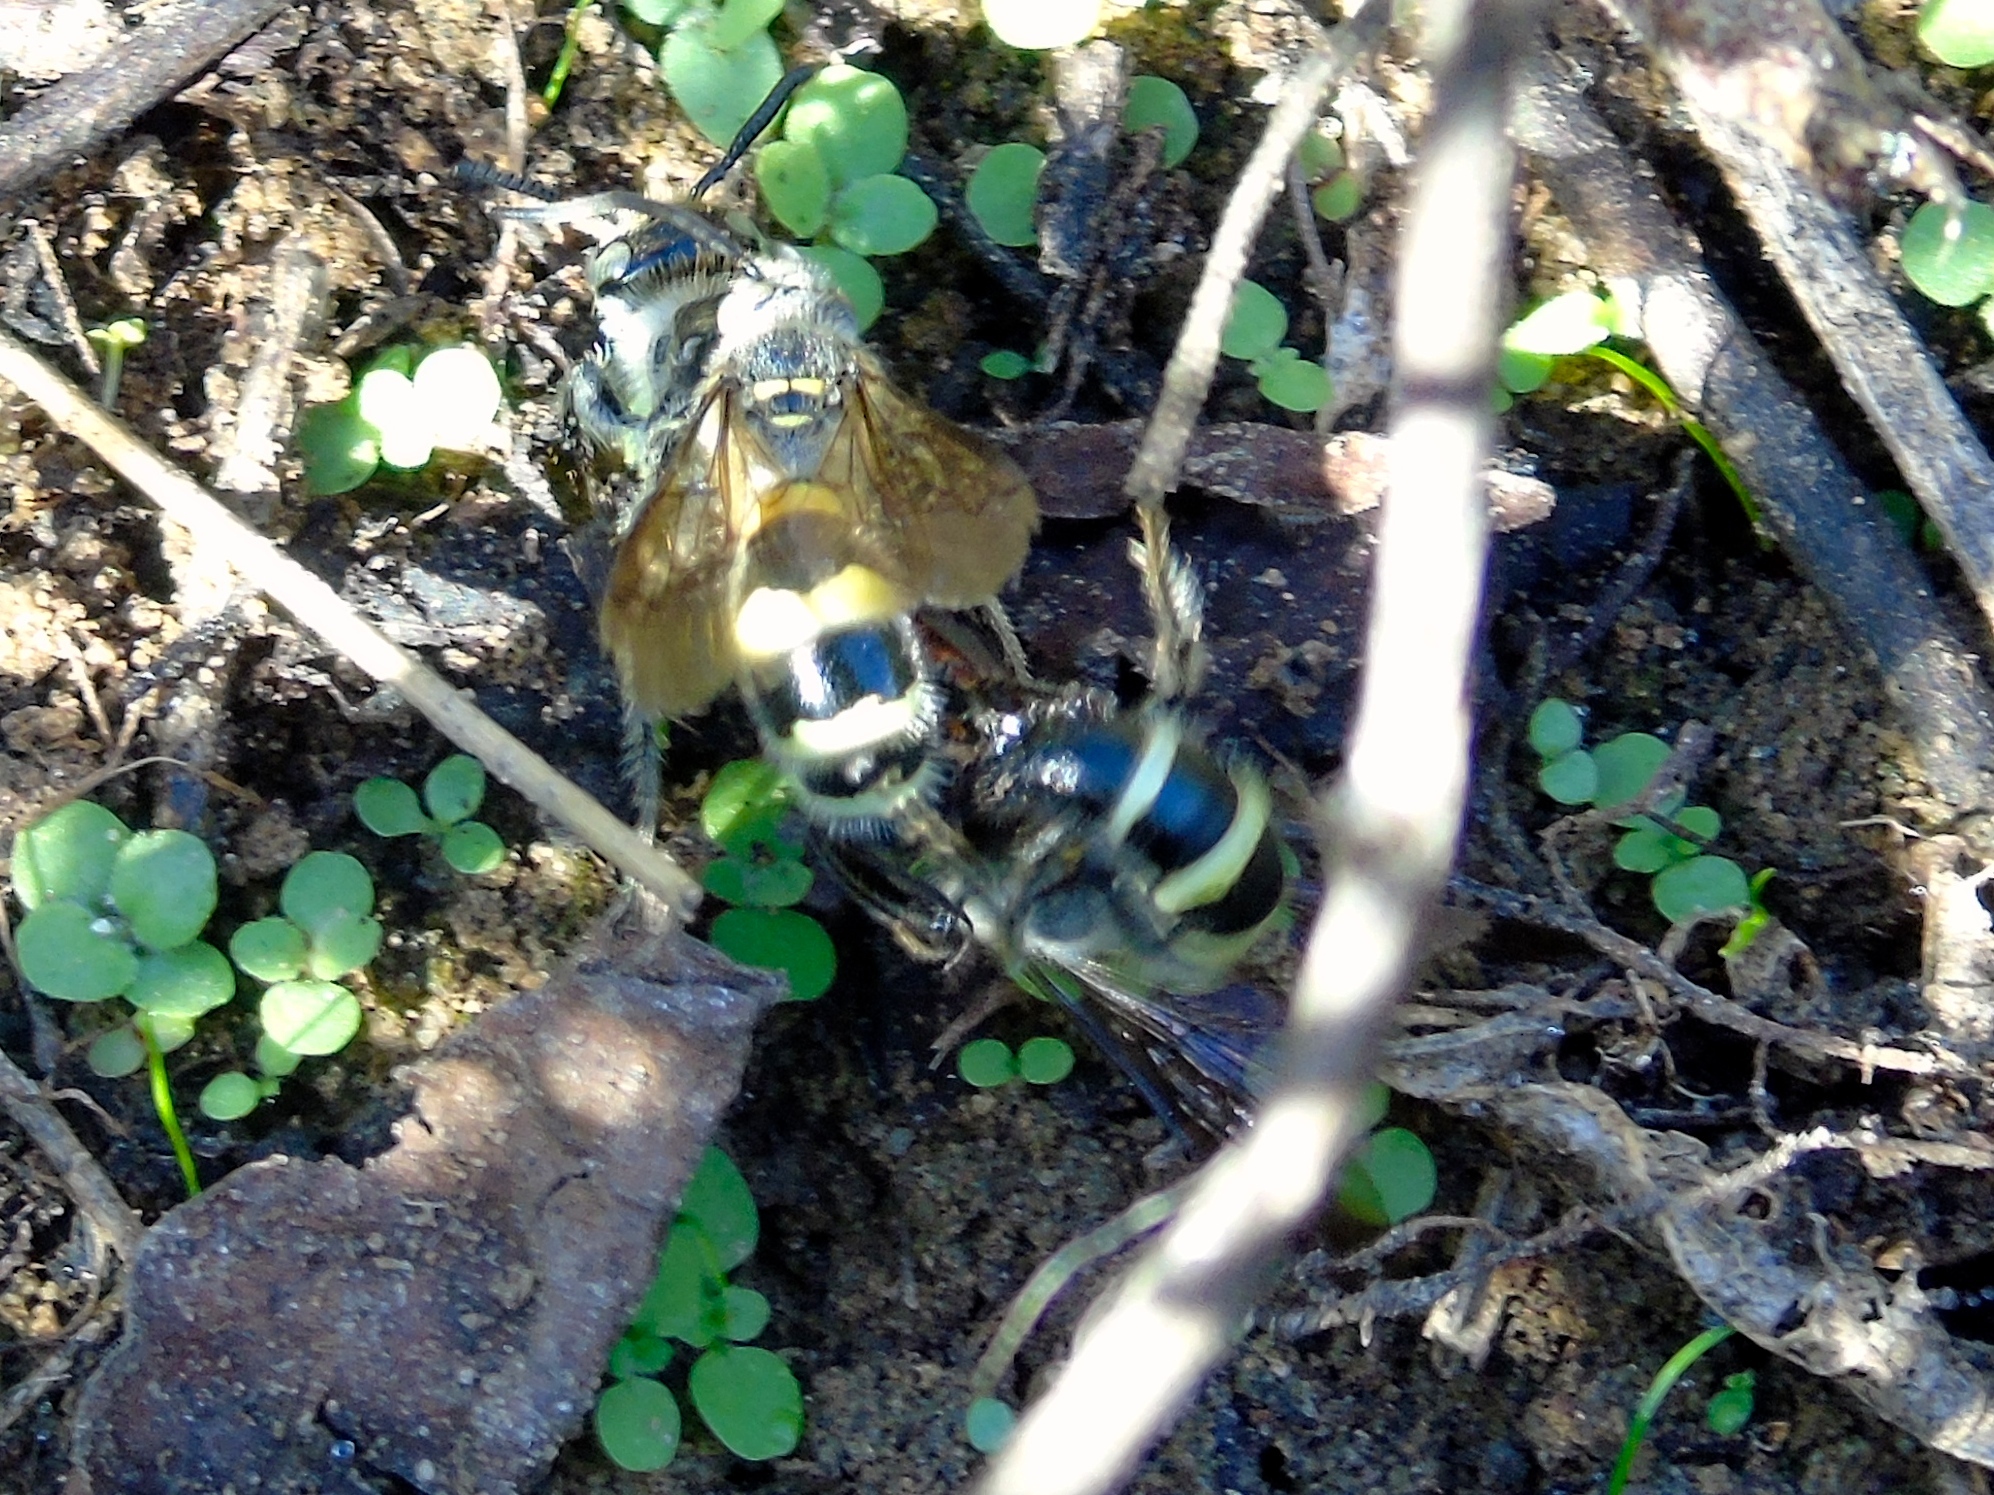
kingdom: Animalia
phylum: Arthropoda
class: Insecta
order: Hymenoptera
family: Scoliidae
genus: Dielis
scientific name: Dielis tolteca
